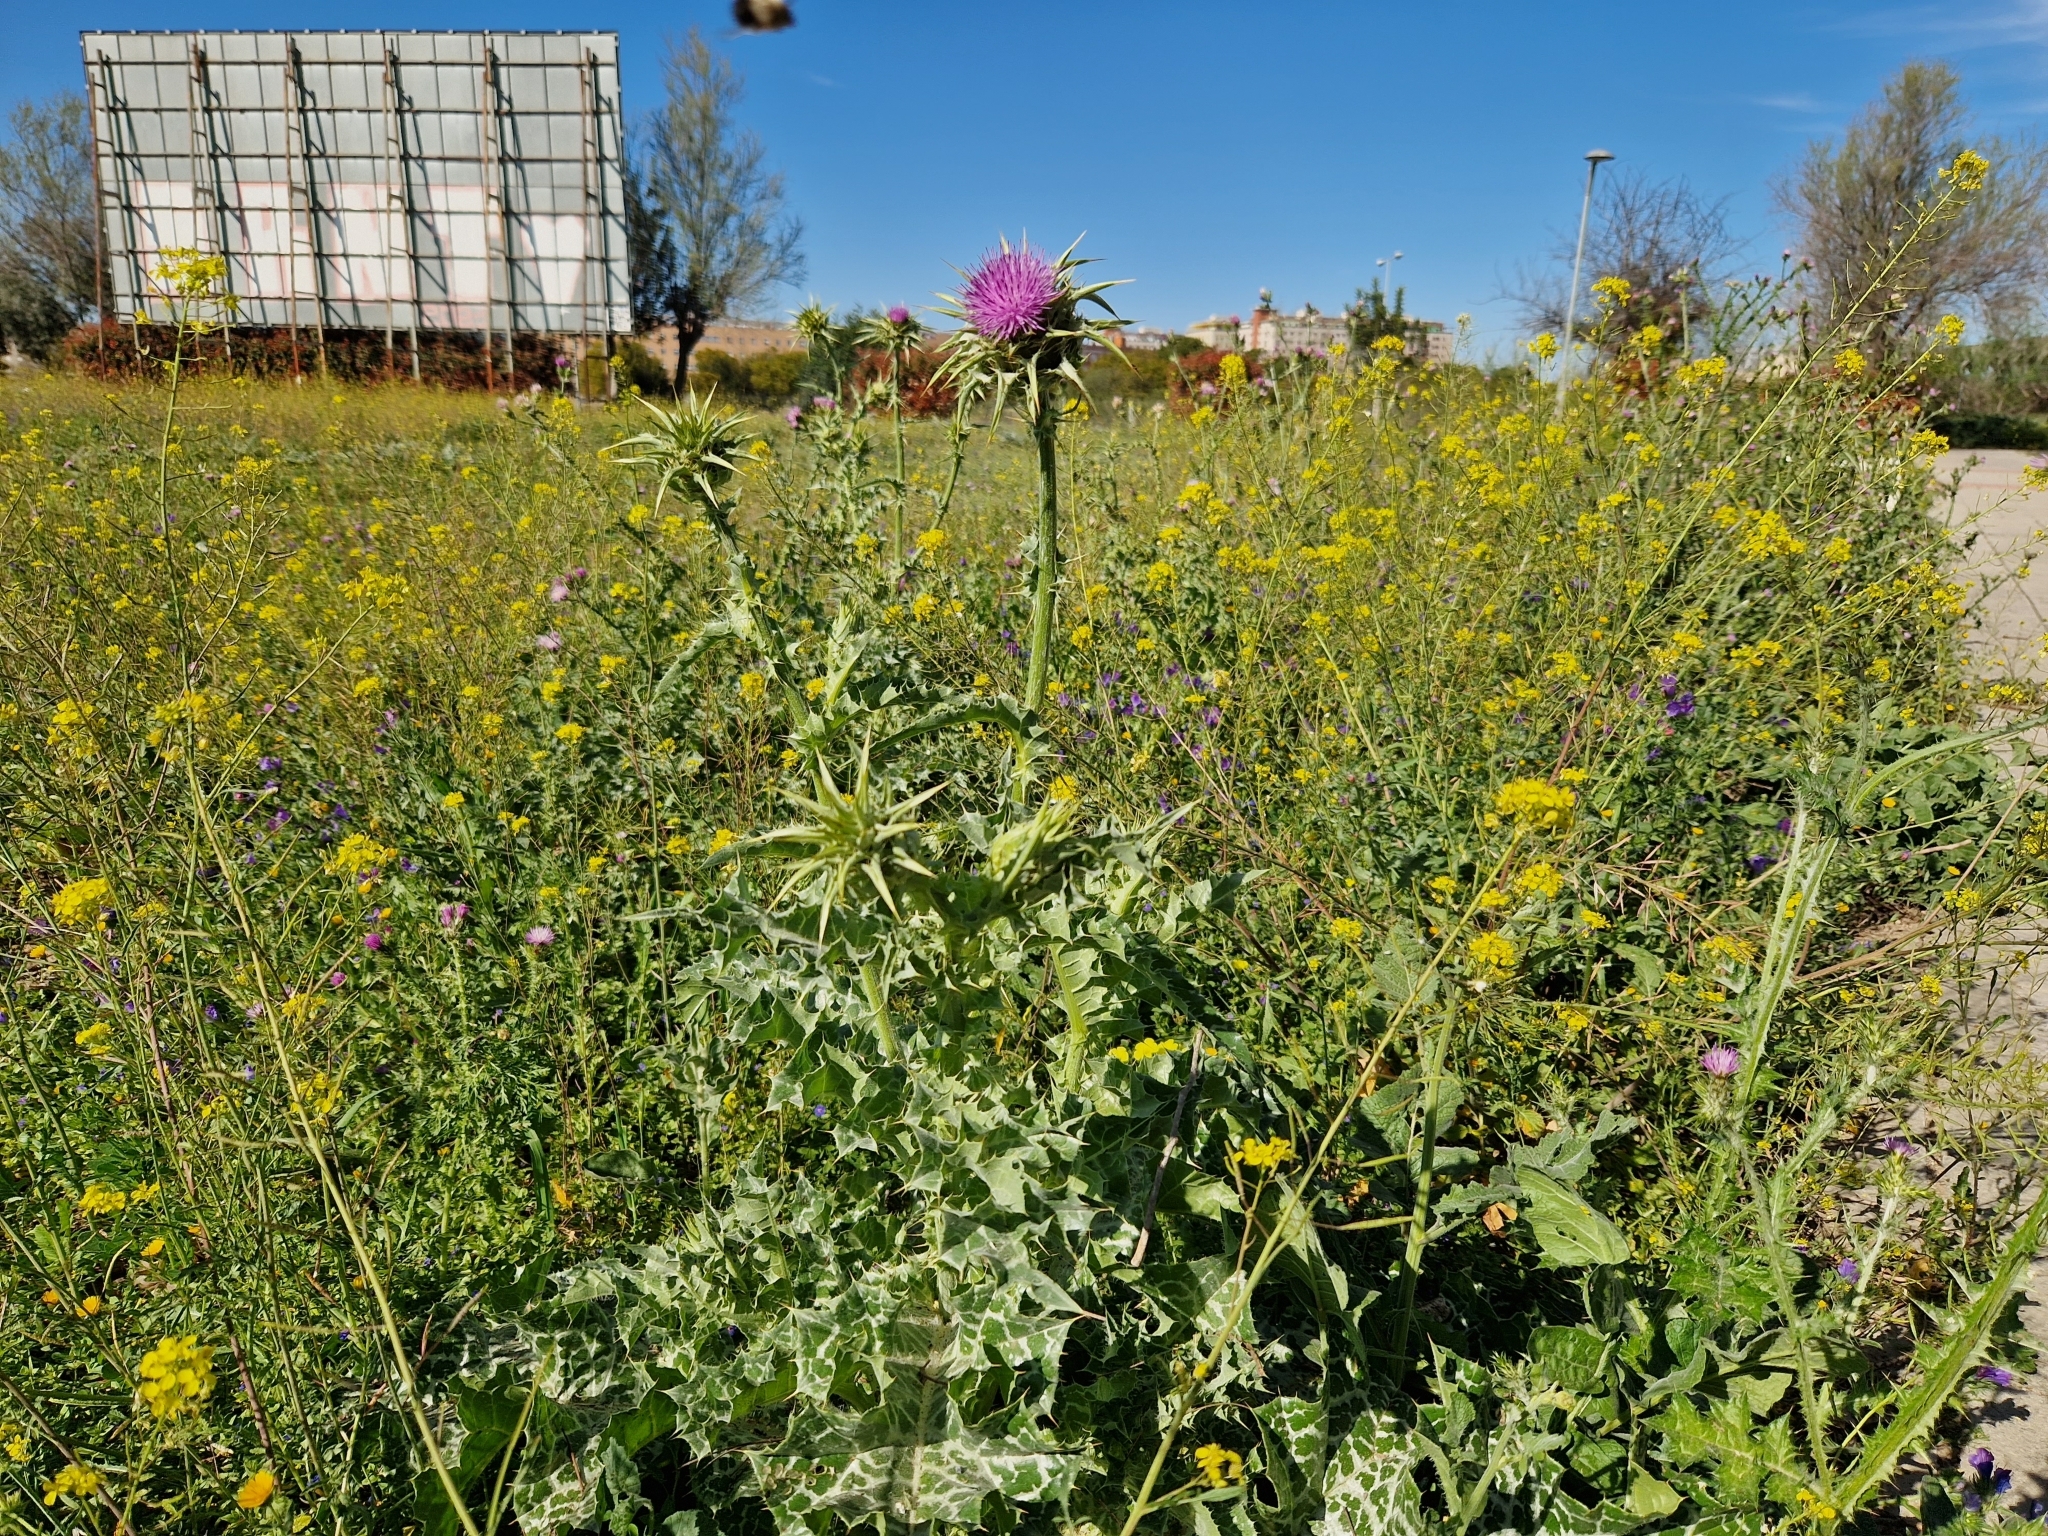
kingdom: Plantae
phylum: Tracheophyta
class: Magnoliopsida
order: Asterales
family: Asteraceae
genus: Silybum
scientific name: Silybum marianum
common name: Milk thistle
